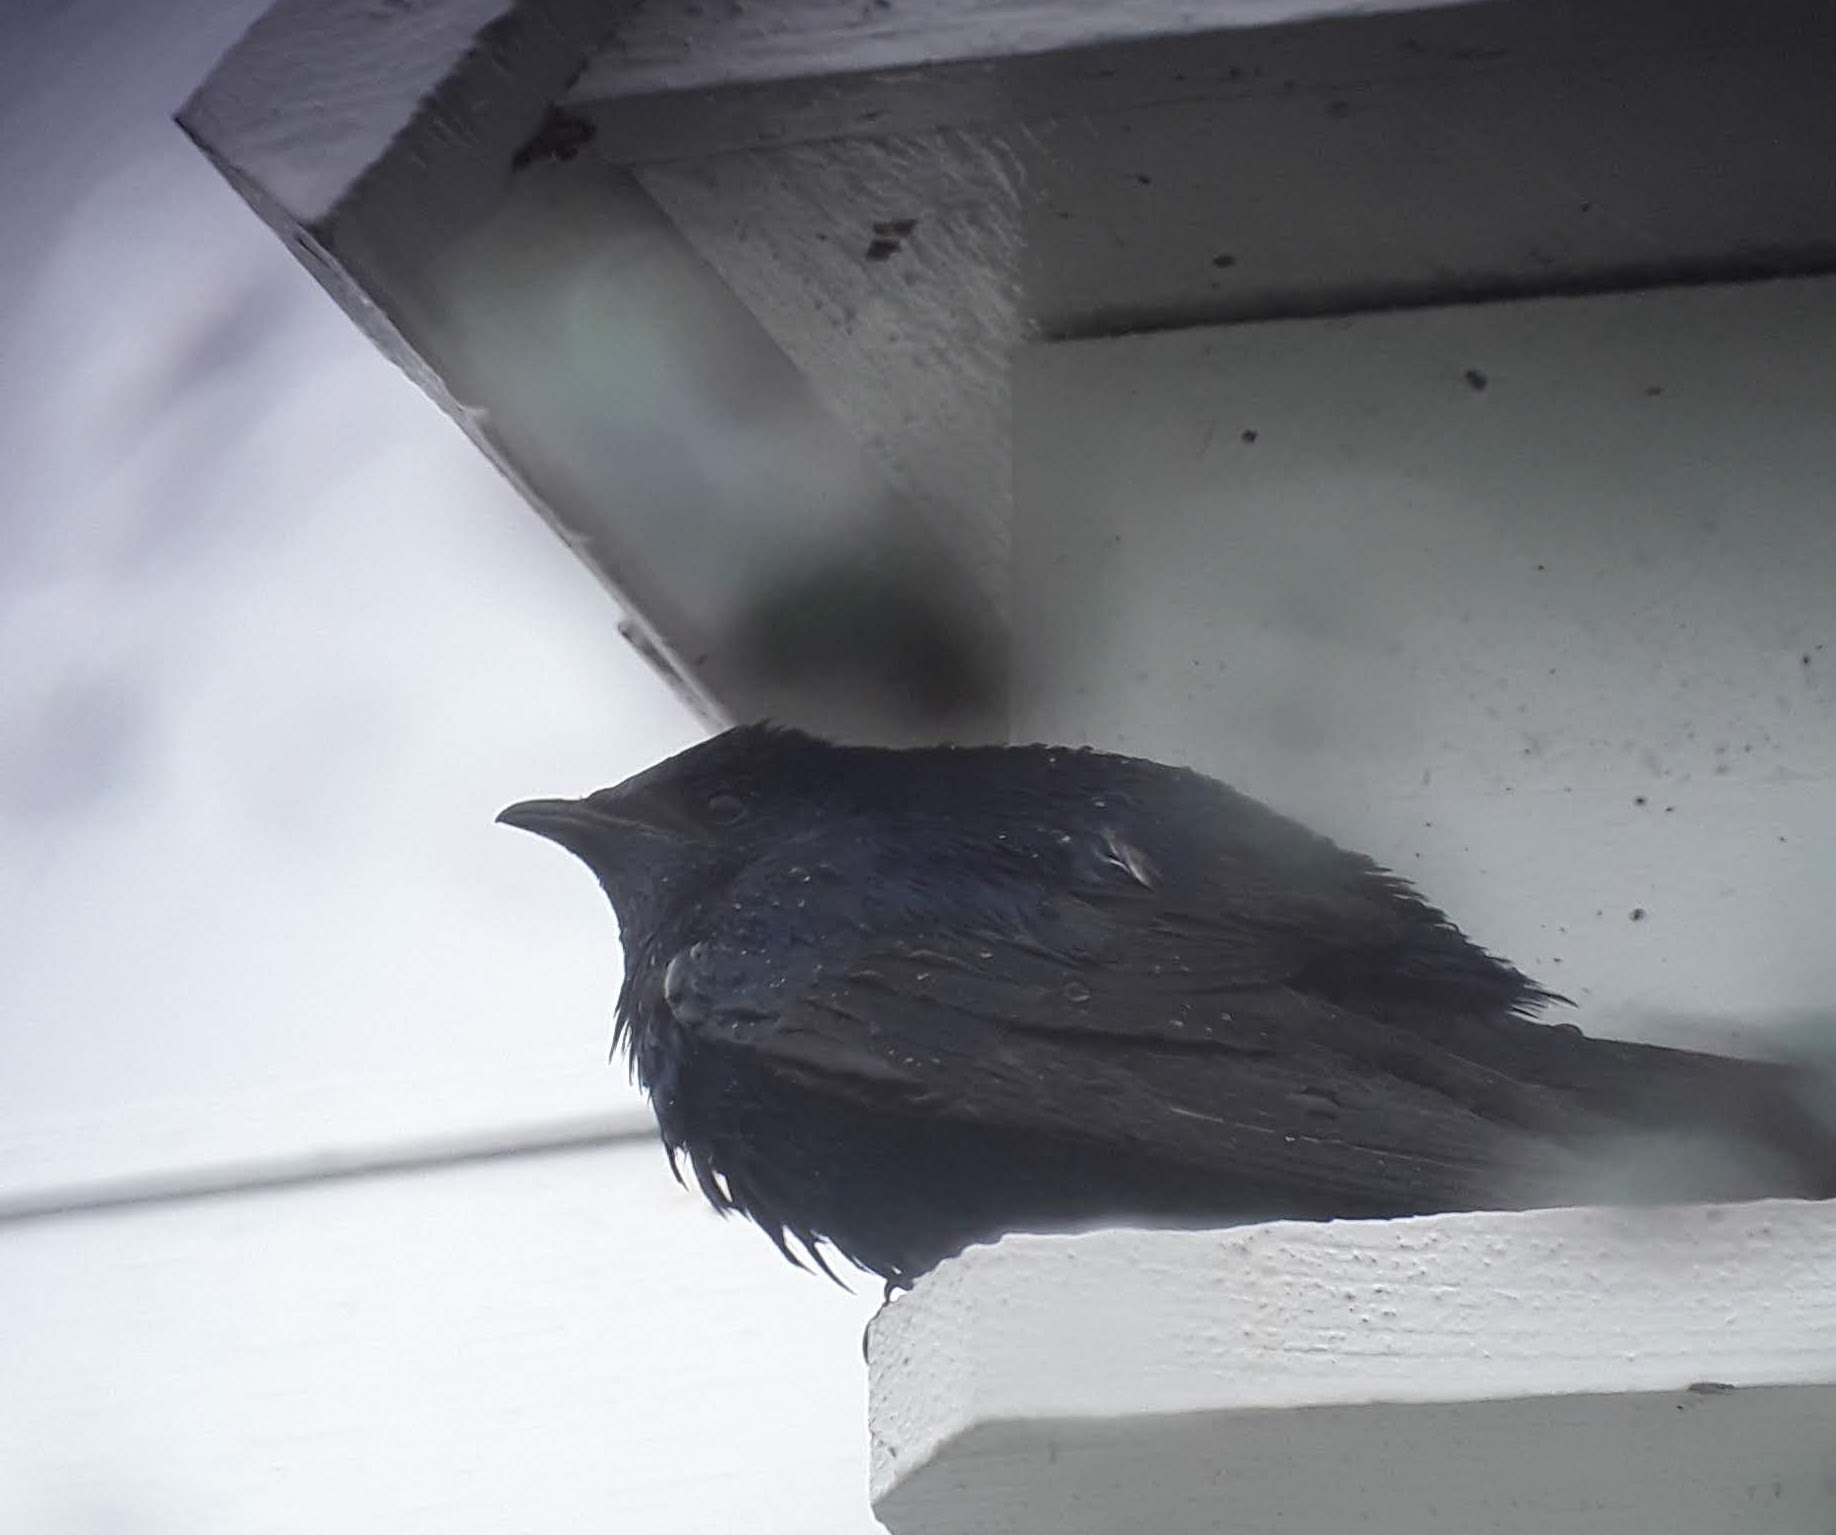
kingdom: Animalia
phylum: Chordata
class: Aves
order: Passeriformes
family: Hirundinidae
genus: Progne
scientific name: Progne subis
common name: Purple martin
